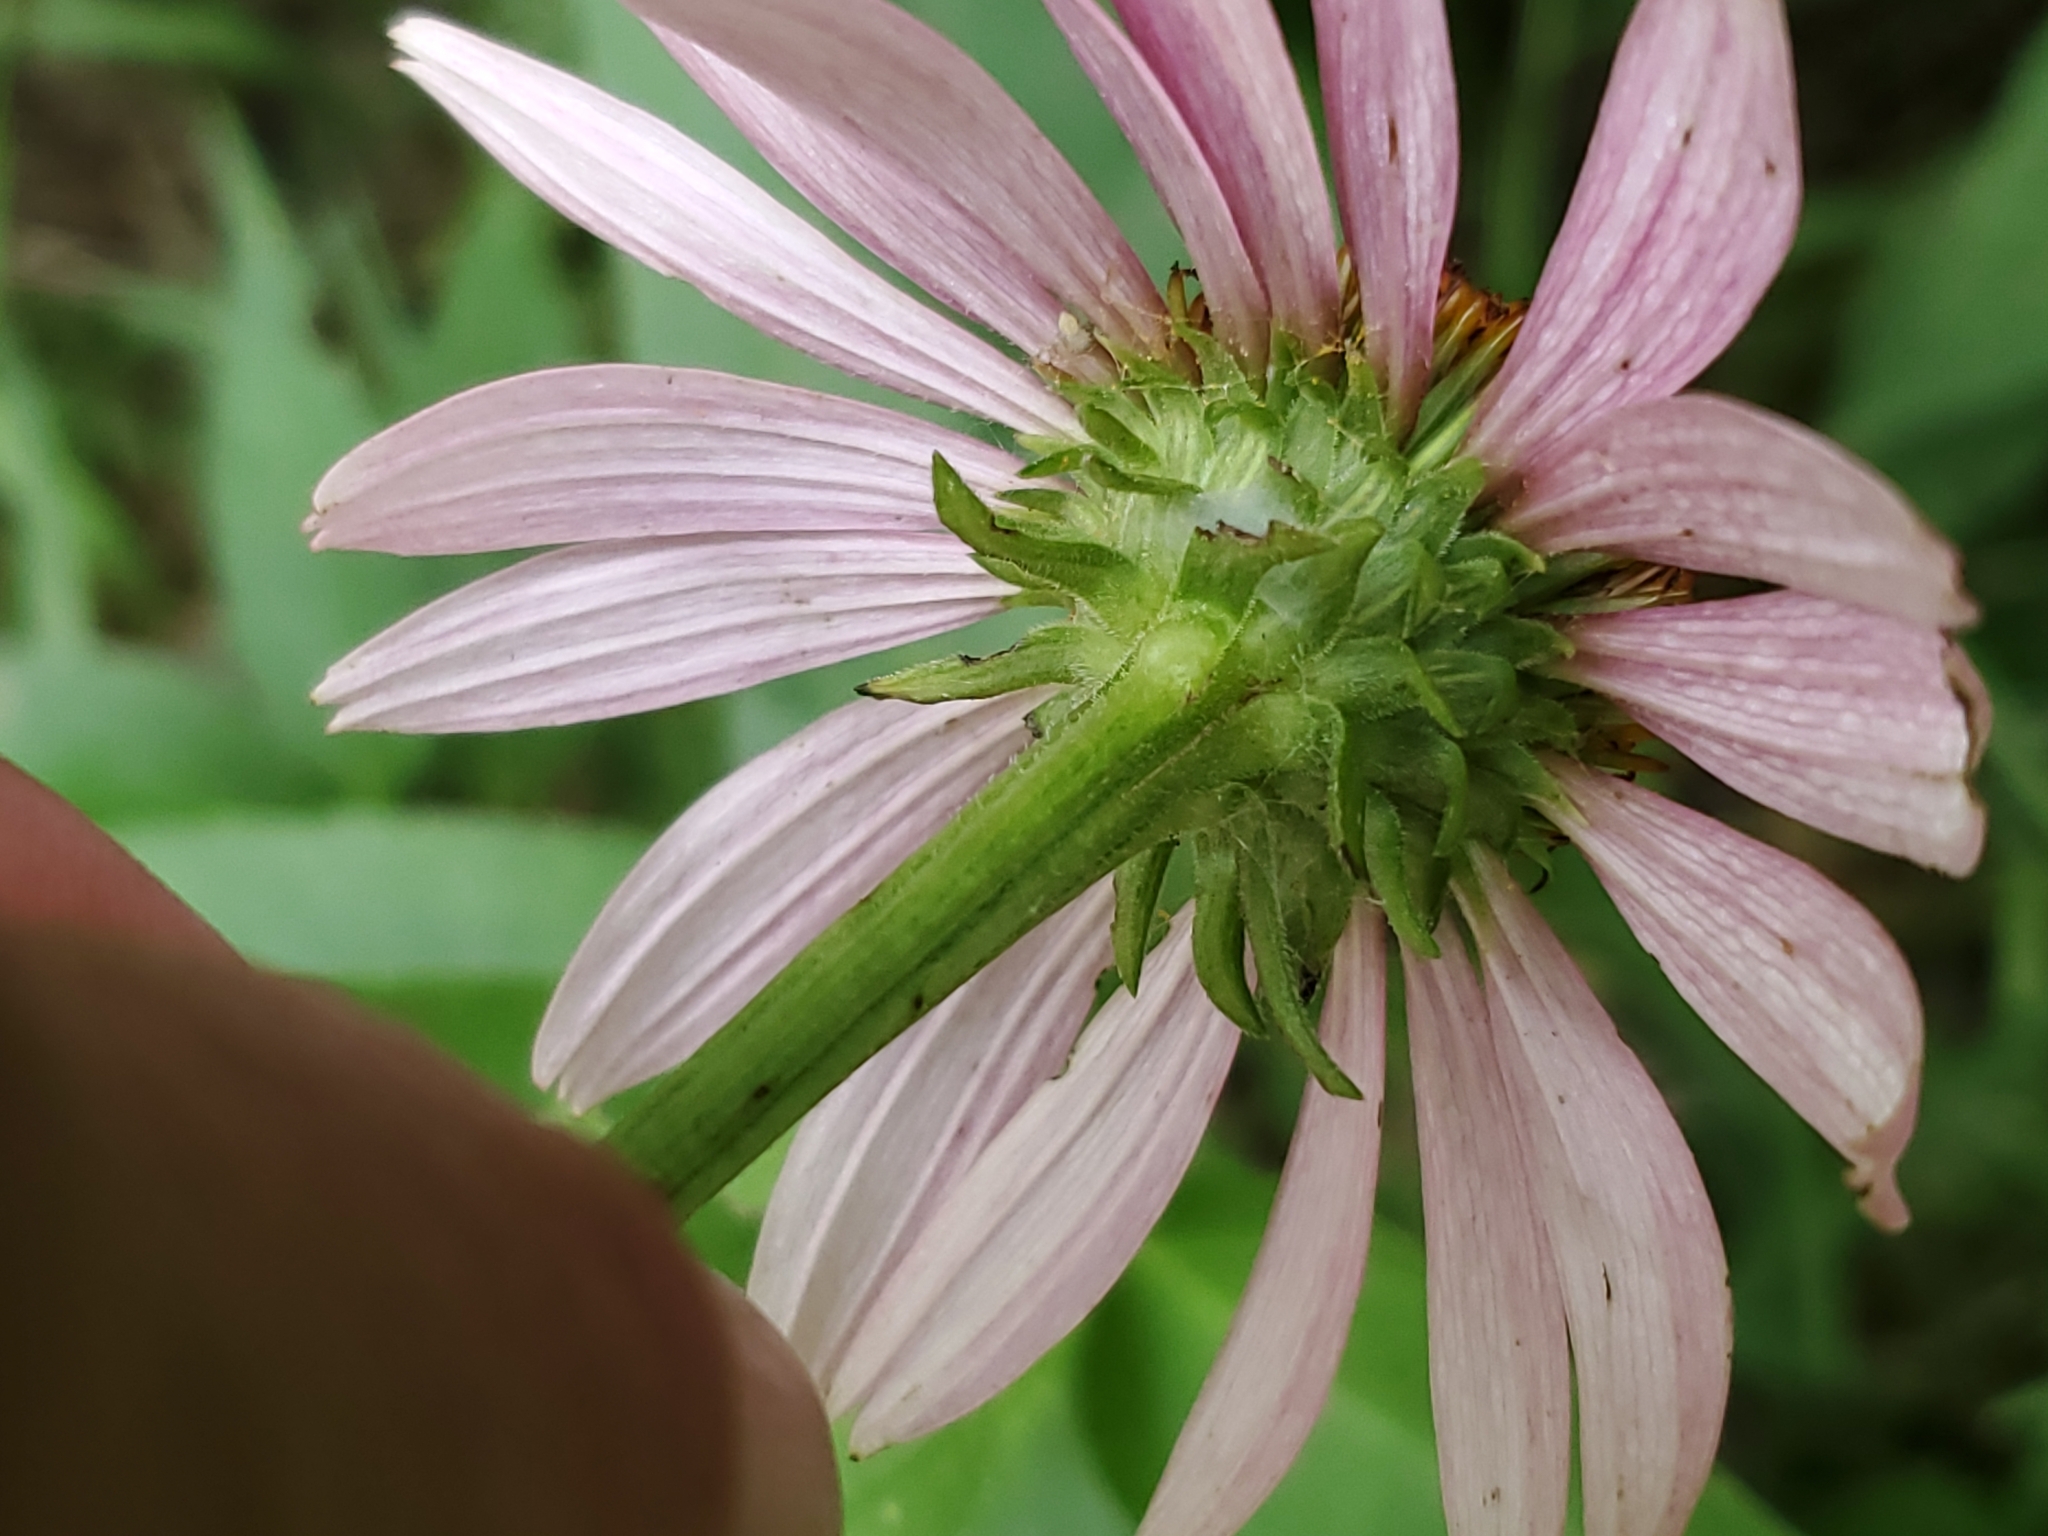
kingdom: Plantae
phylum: Tracheophyta
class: Magnoliopsida
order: Asterales
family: Asteraceae
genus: Echinacea
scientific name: Echinacea purpurea
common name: Broad-leaved purple coneflower
